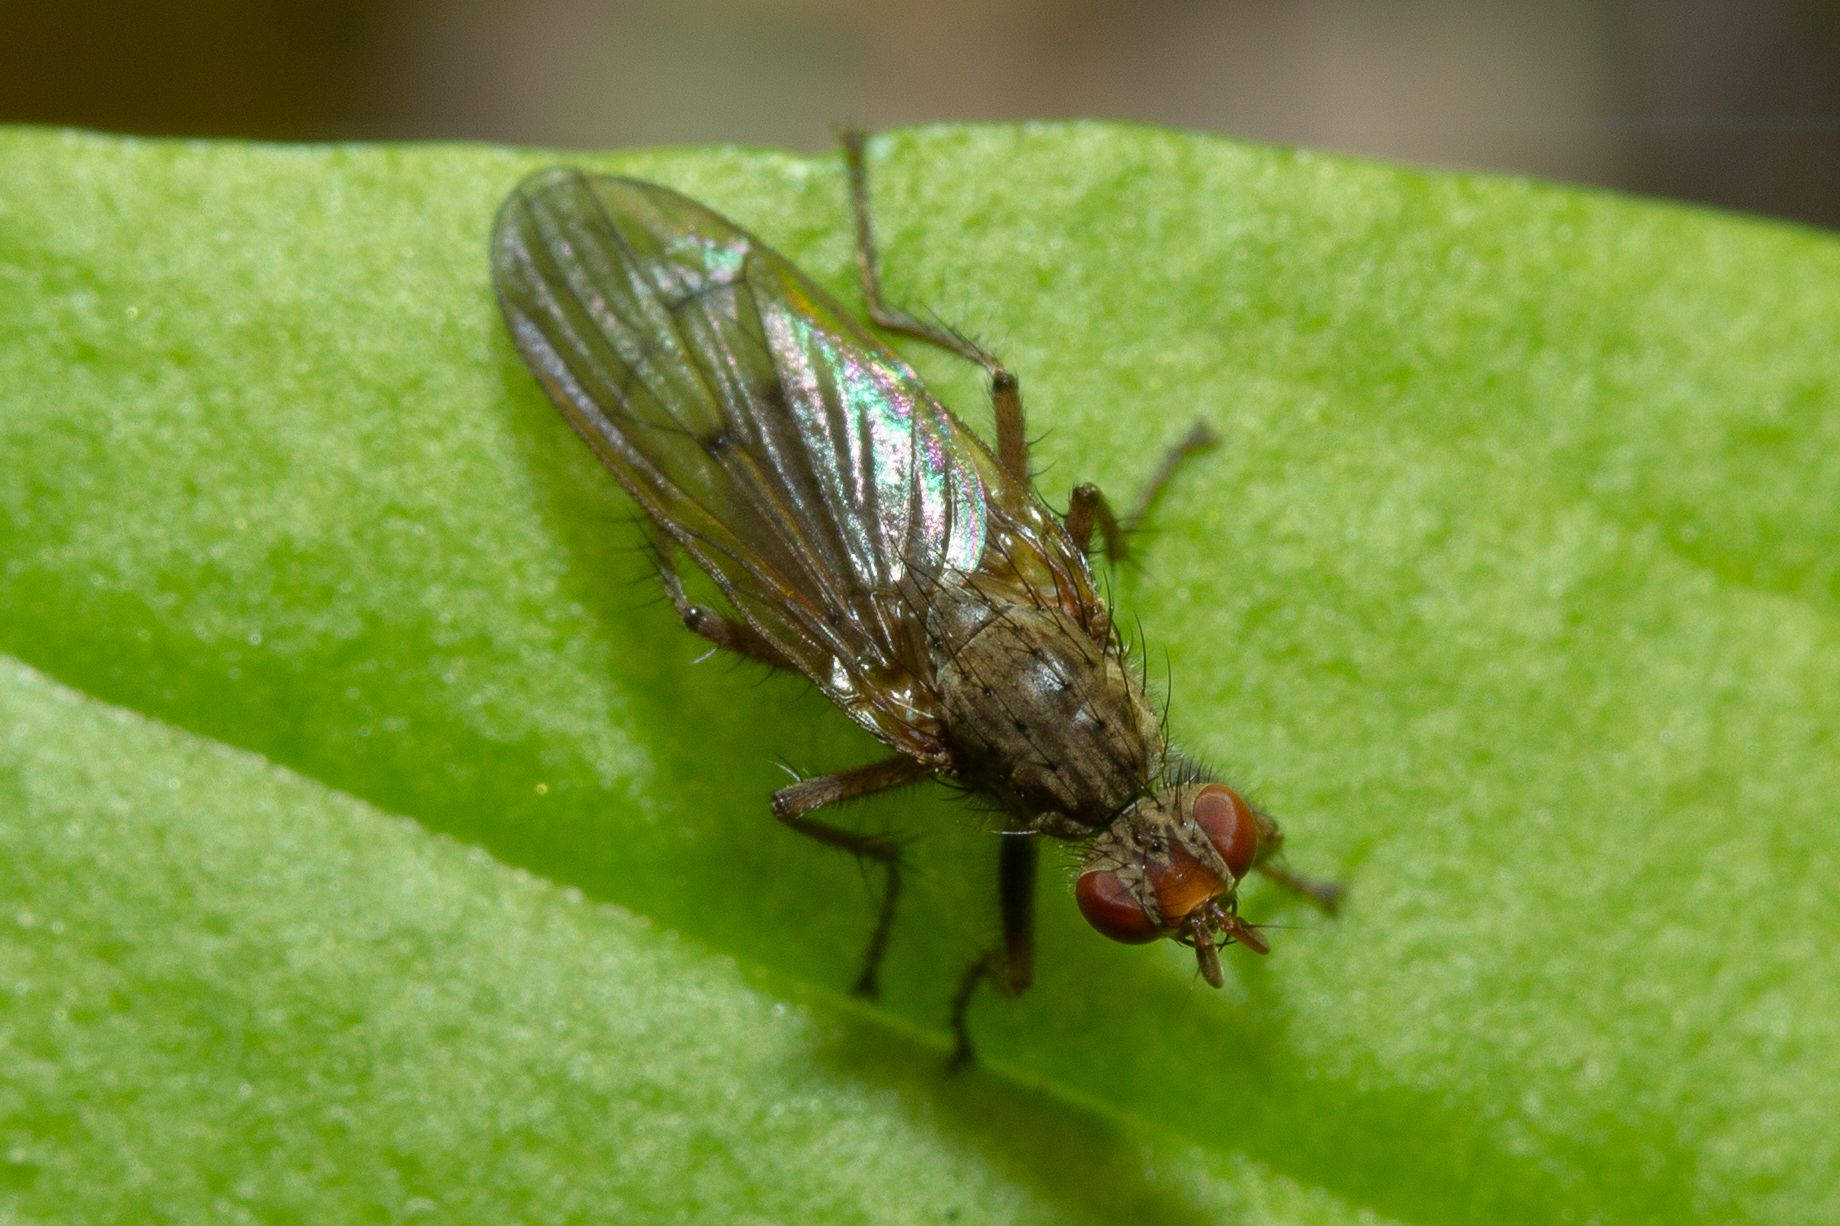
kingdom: Animalia
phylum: Arthropoda
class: Insecta
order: Diptera
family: Scathophagidae
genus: Scathophaga
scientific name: Scathophaga furcata
